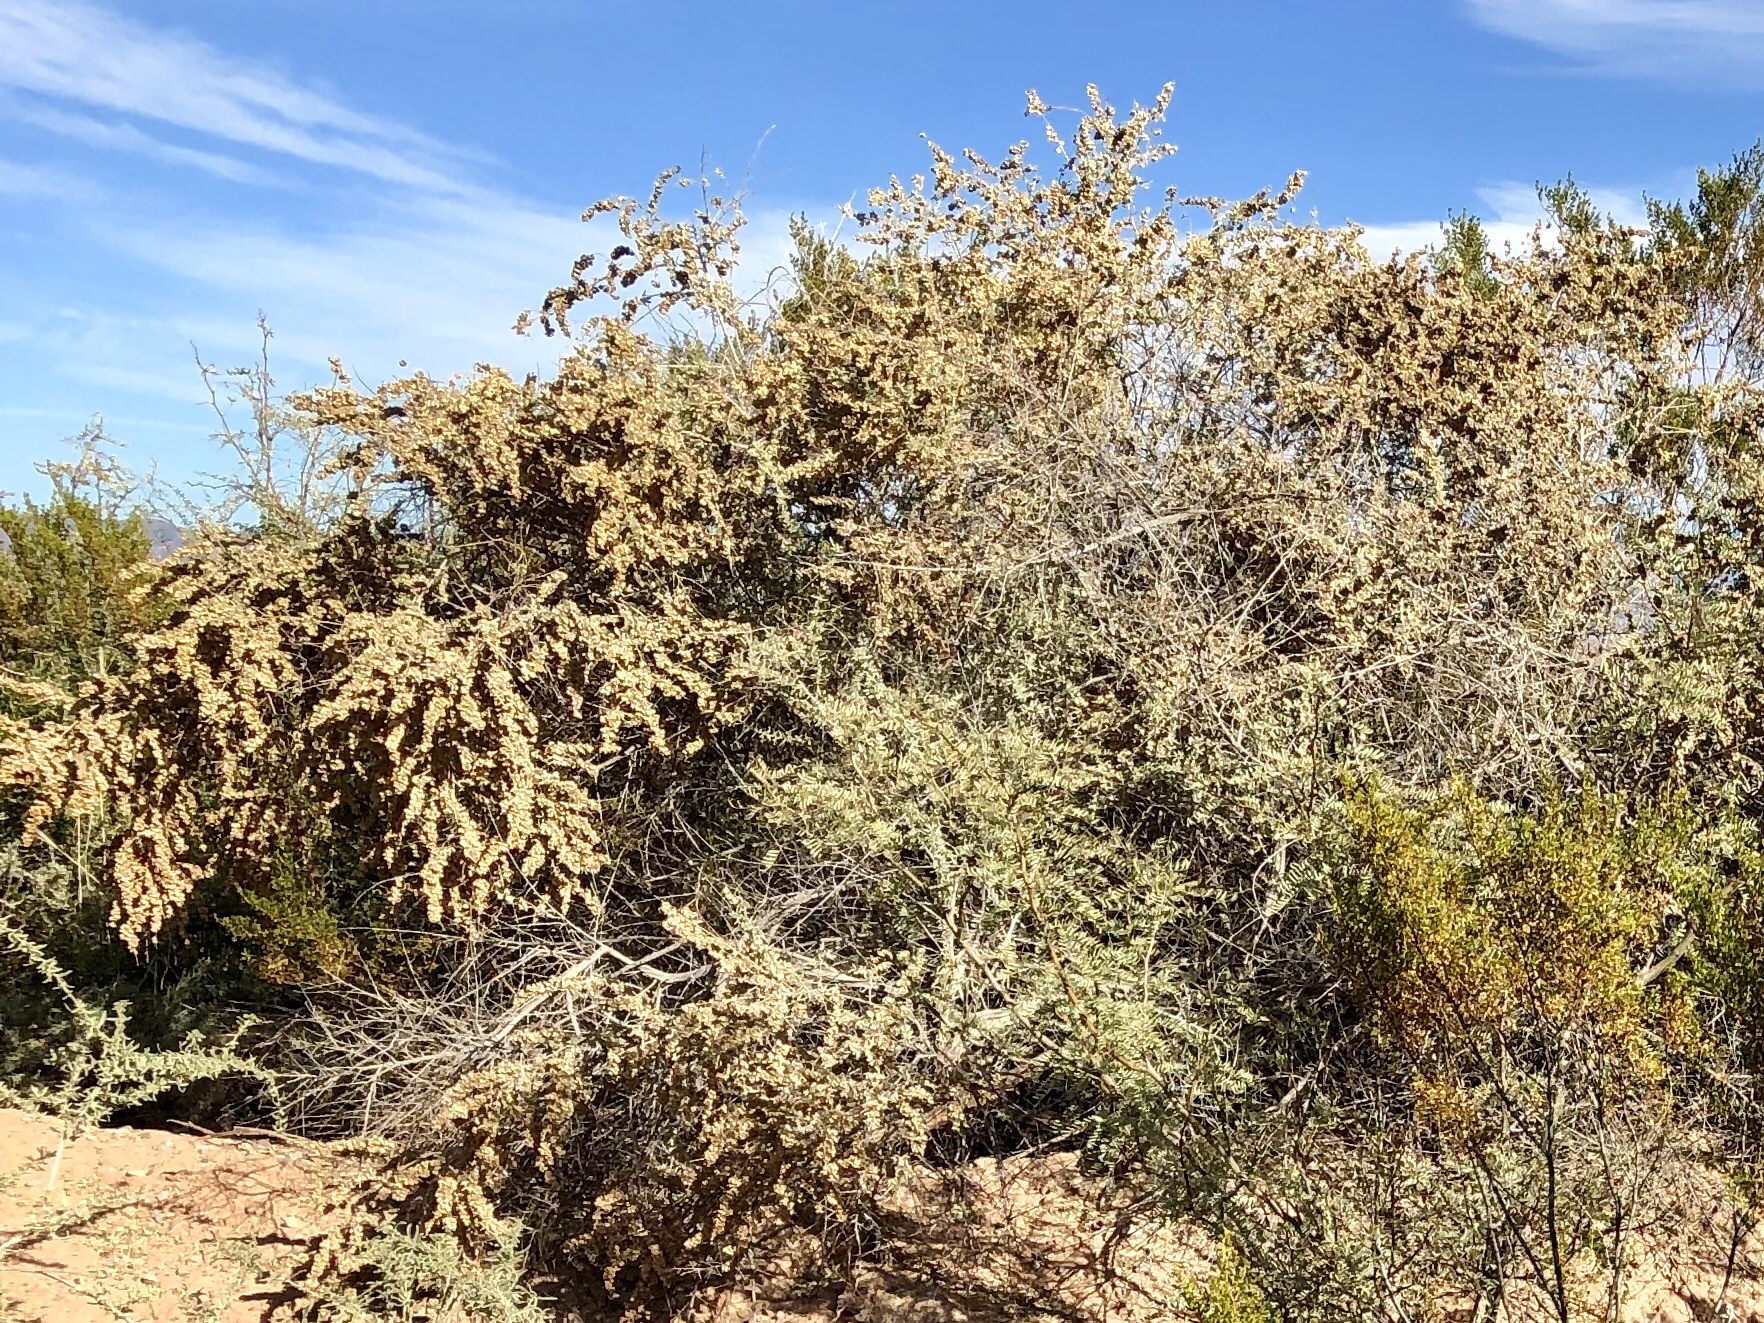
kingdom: Plantae
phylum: Tracheophyta
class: Magnoliopsida
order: Caryophyllales
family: Amaranthaceae
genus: Atriplex
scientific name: Atriplex canescens
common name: Four-wing saltbush
